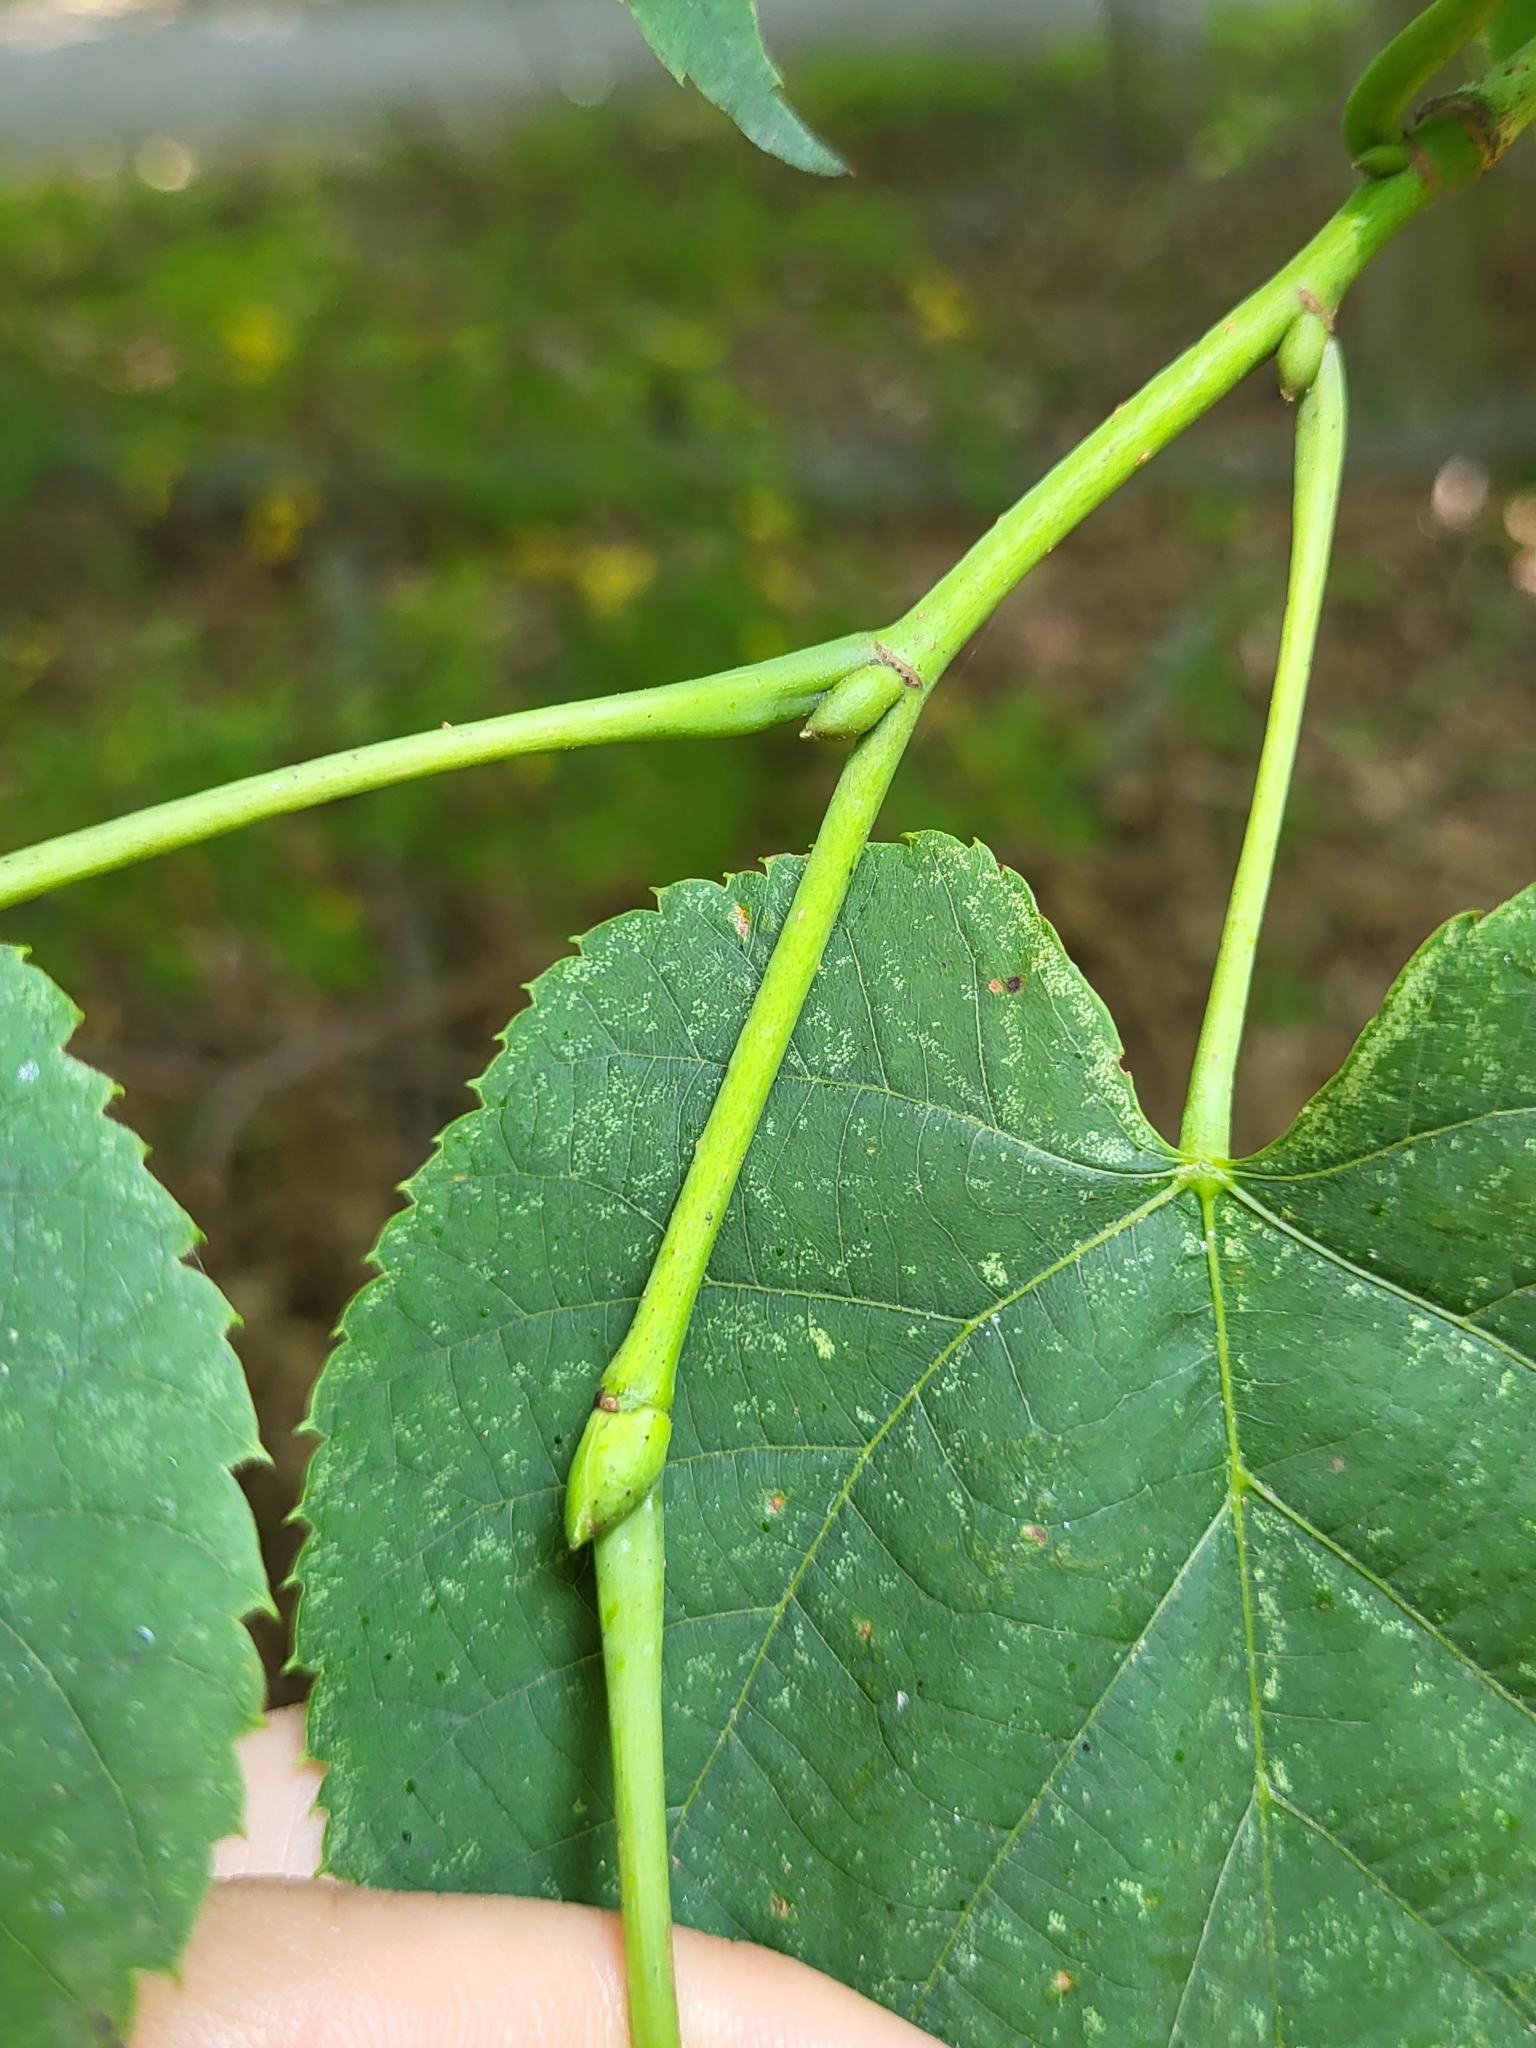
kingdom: Plantae
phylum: Tracheophyta
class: Magnoliopsida
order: Malvales
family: Malvaceae
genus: Tilia
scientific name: Tilia americana
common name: Basswood
